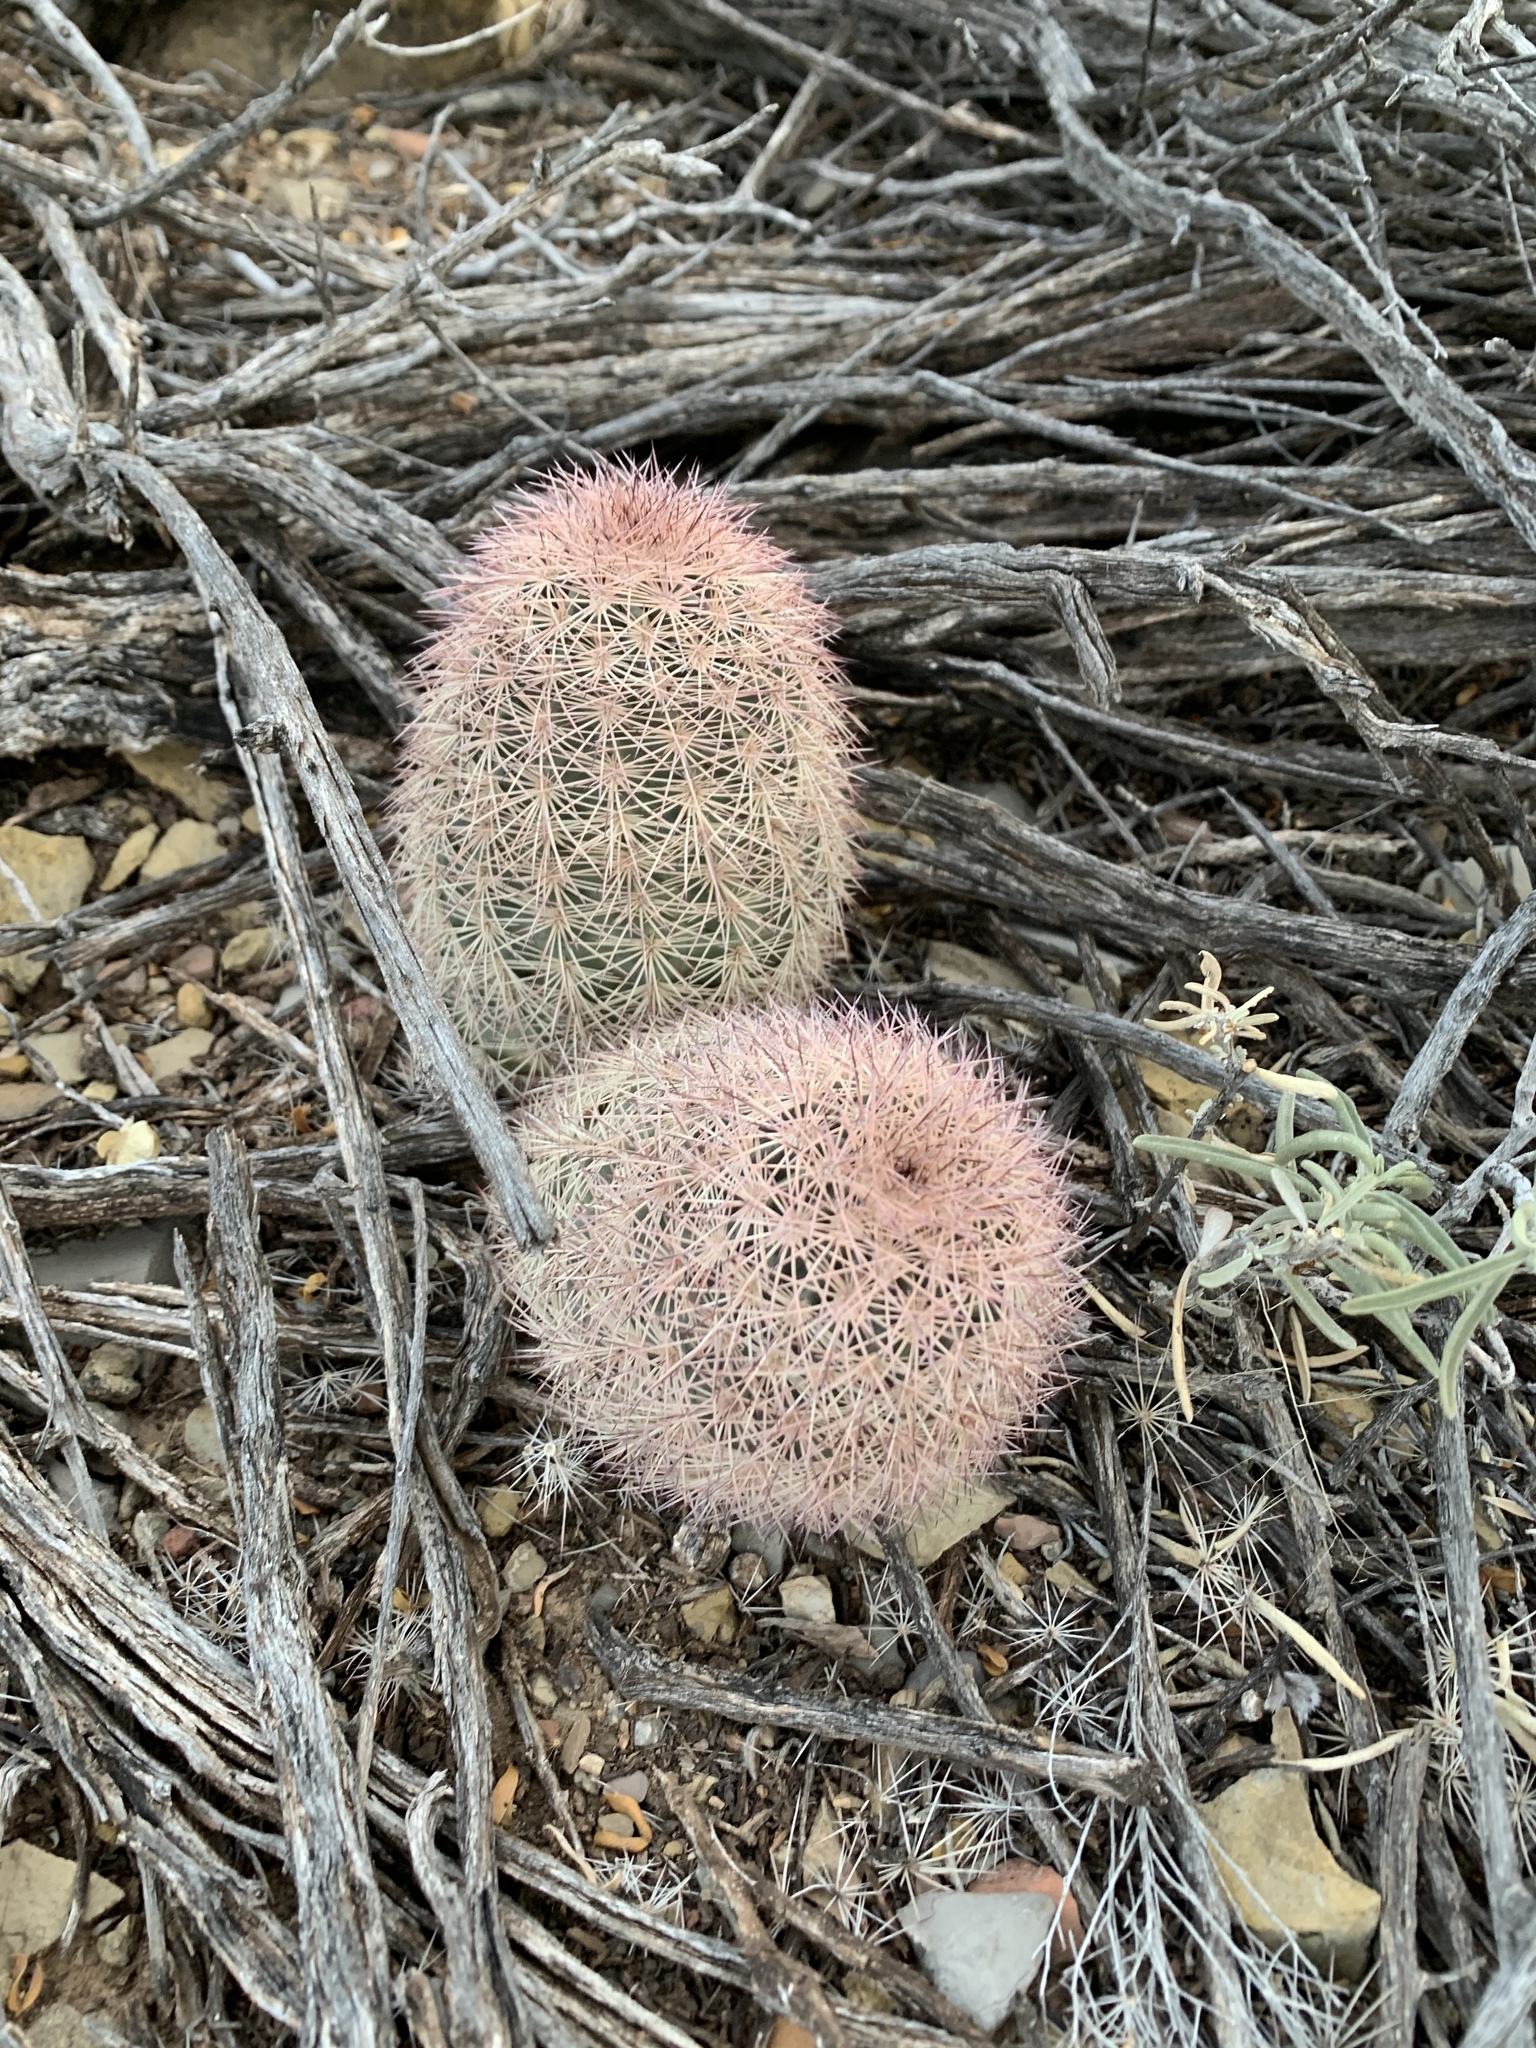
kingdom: Plantae
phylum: Tracheophyta
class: Magnoliopsida
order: Caryophyllales
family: Cactaceae
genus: Echinocereus
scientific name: Echinocereus dasyacanthus
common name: Spiny hedgehog cactus
